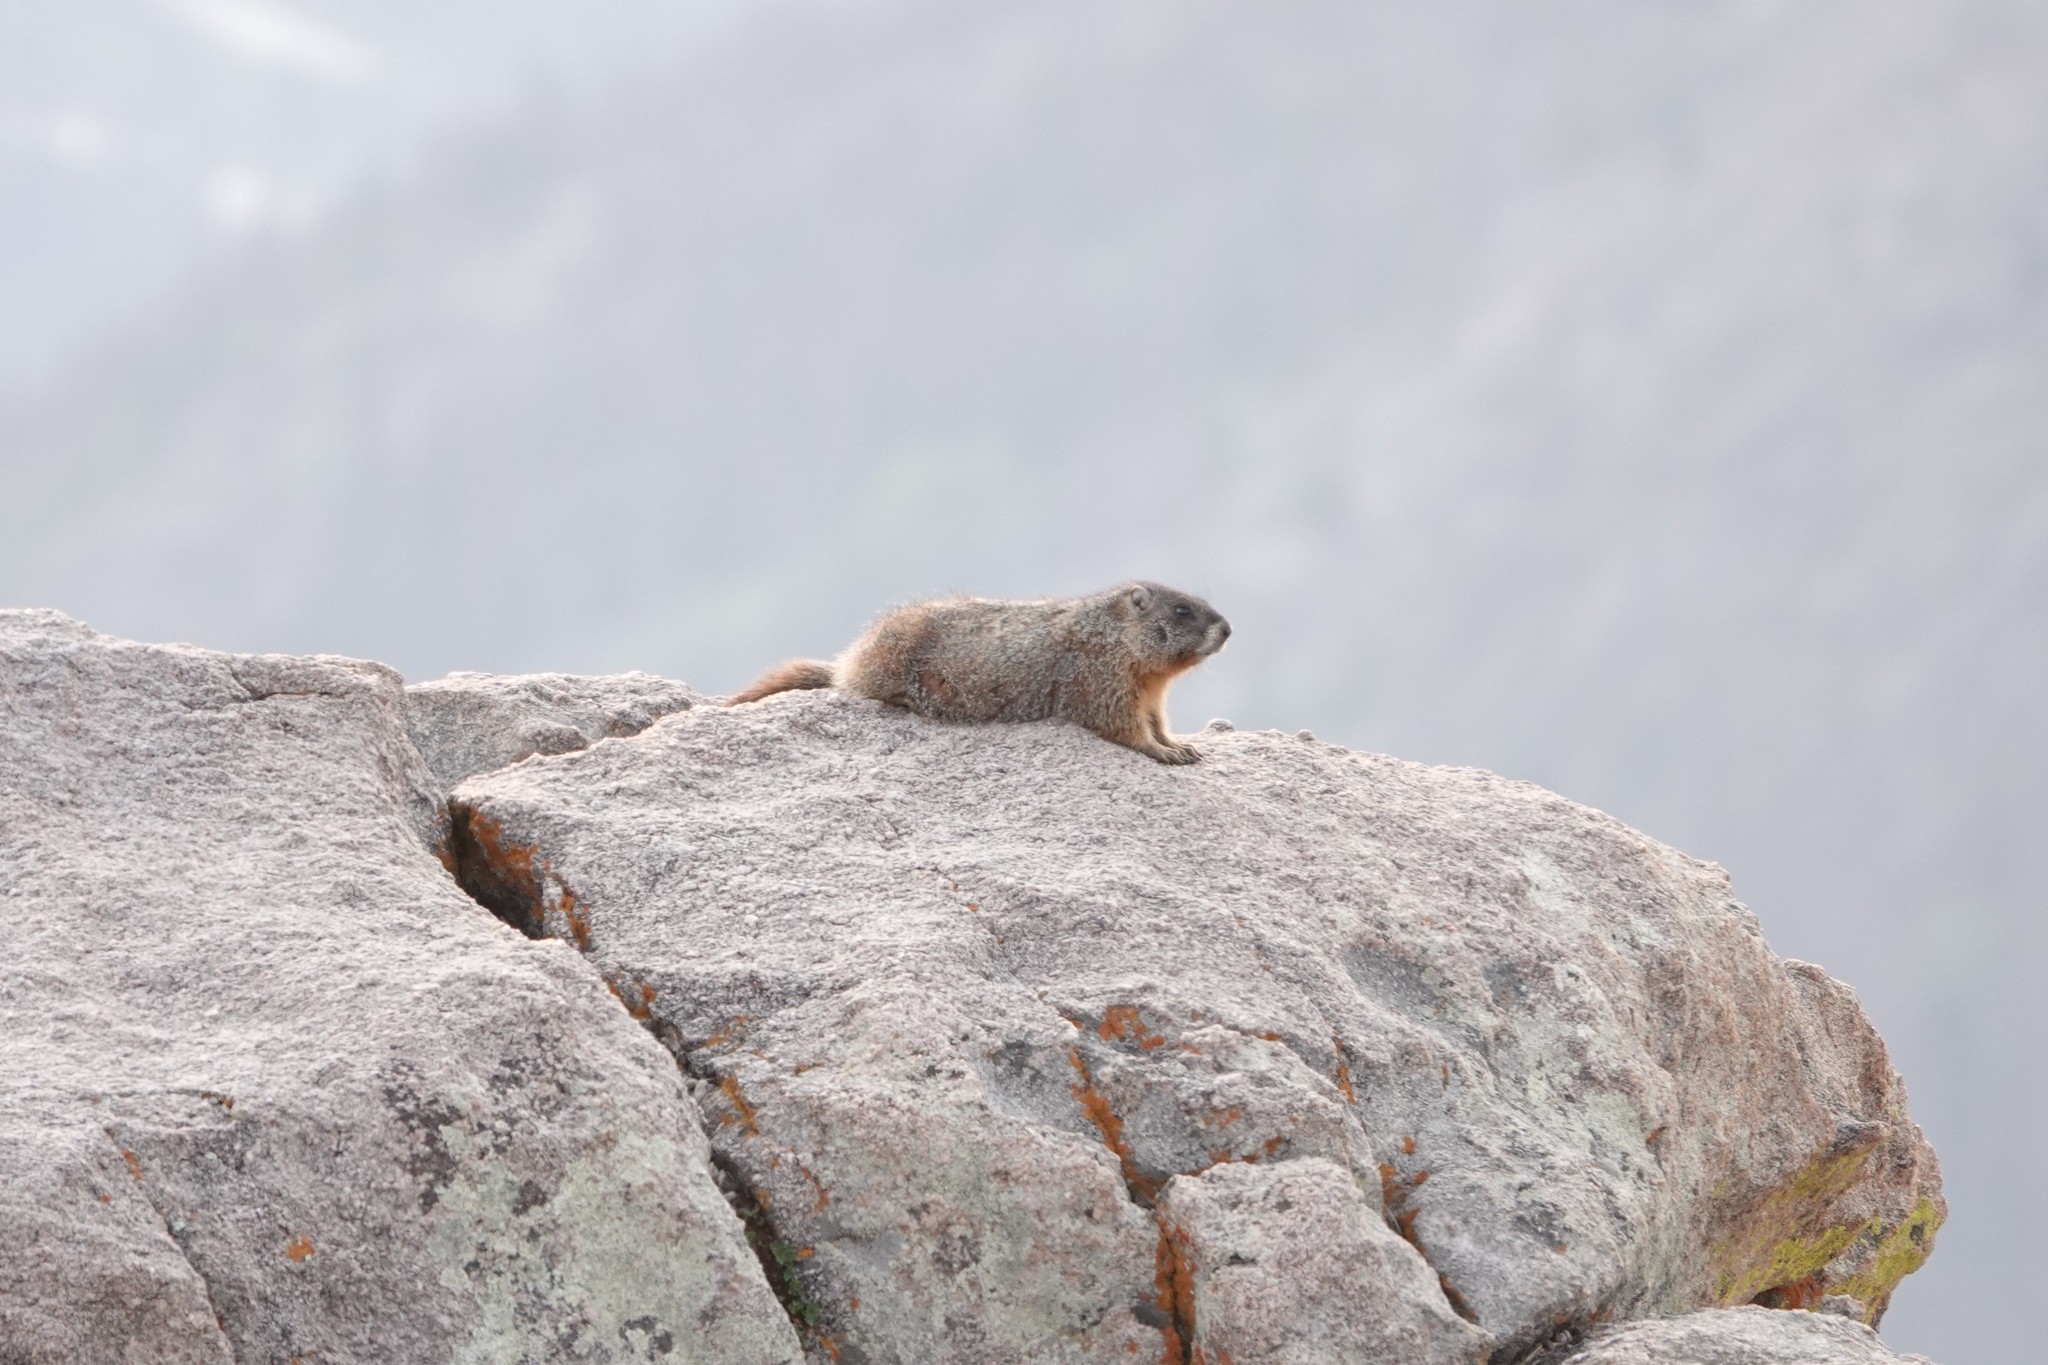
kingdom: Animalia
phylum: Chordata
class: Mammalia
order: Rodentia
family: Sciuridae
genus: Marmota
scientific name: Marmota flaviventris
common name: Yellow-bellied marmot
